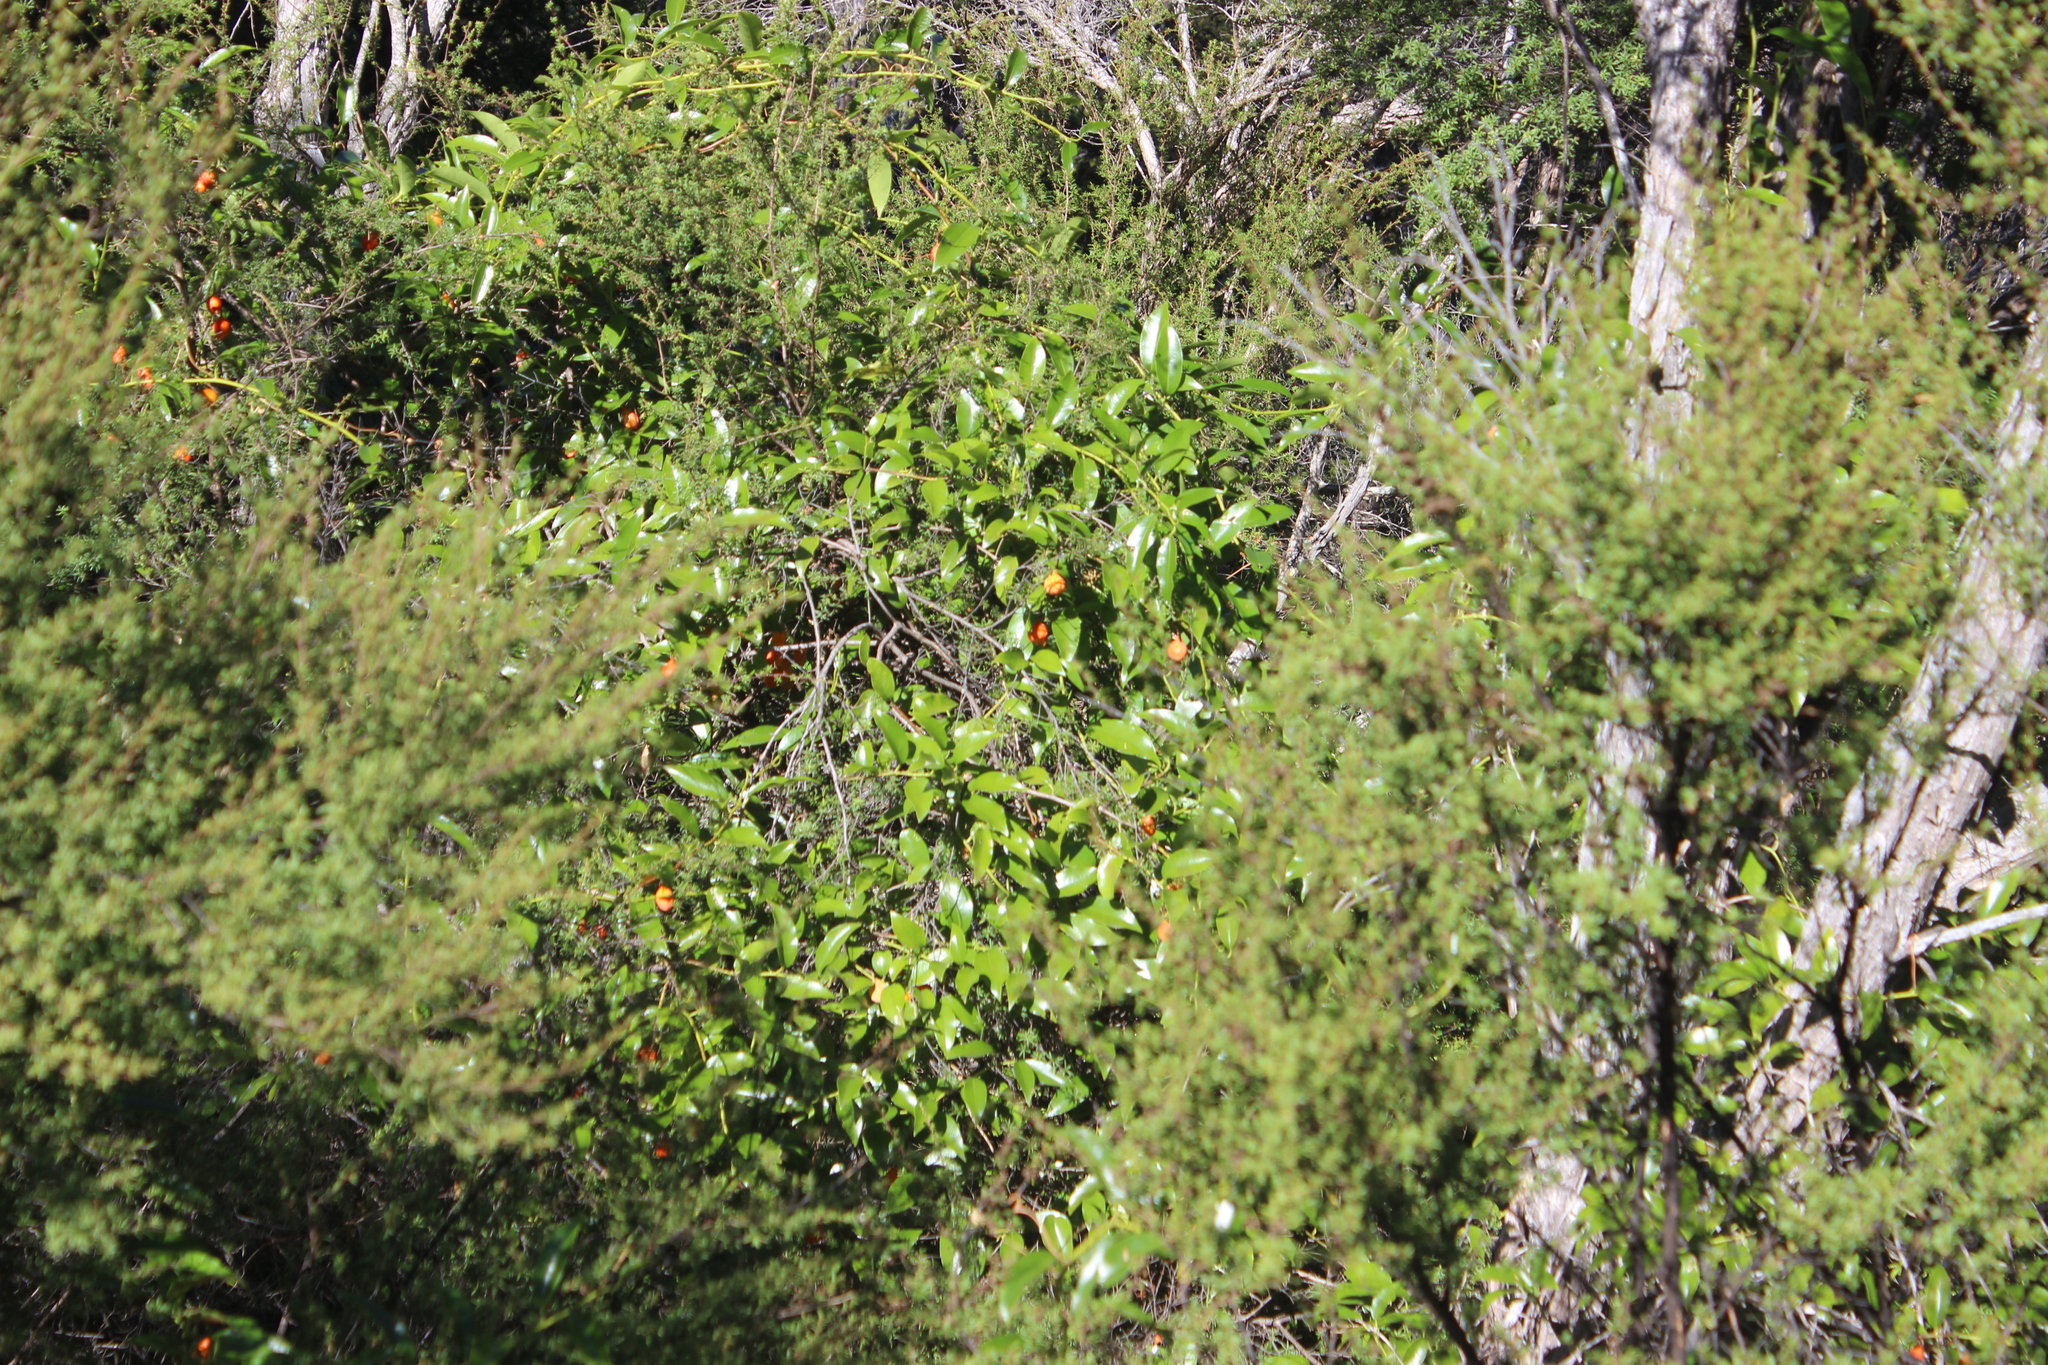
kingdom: Plantae
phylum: Tracheophyta
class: Magnoliopsida
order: Malpighiales
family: Passifloraceae
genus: Passiflora
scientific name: Passiflora tetrandra
